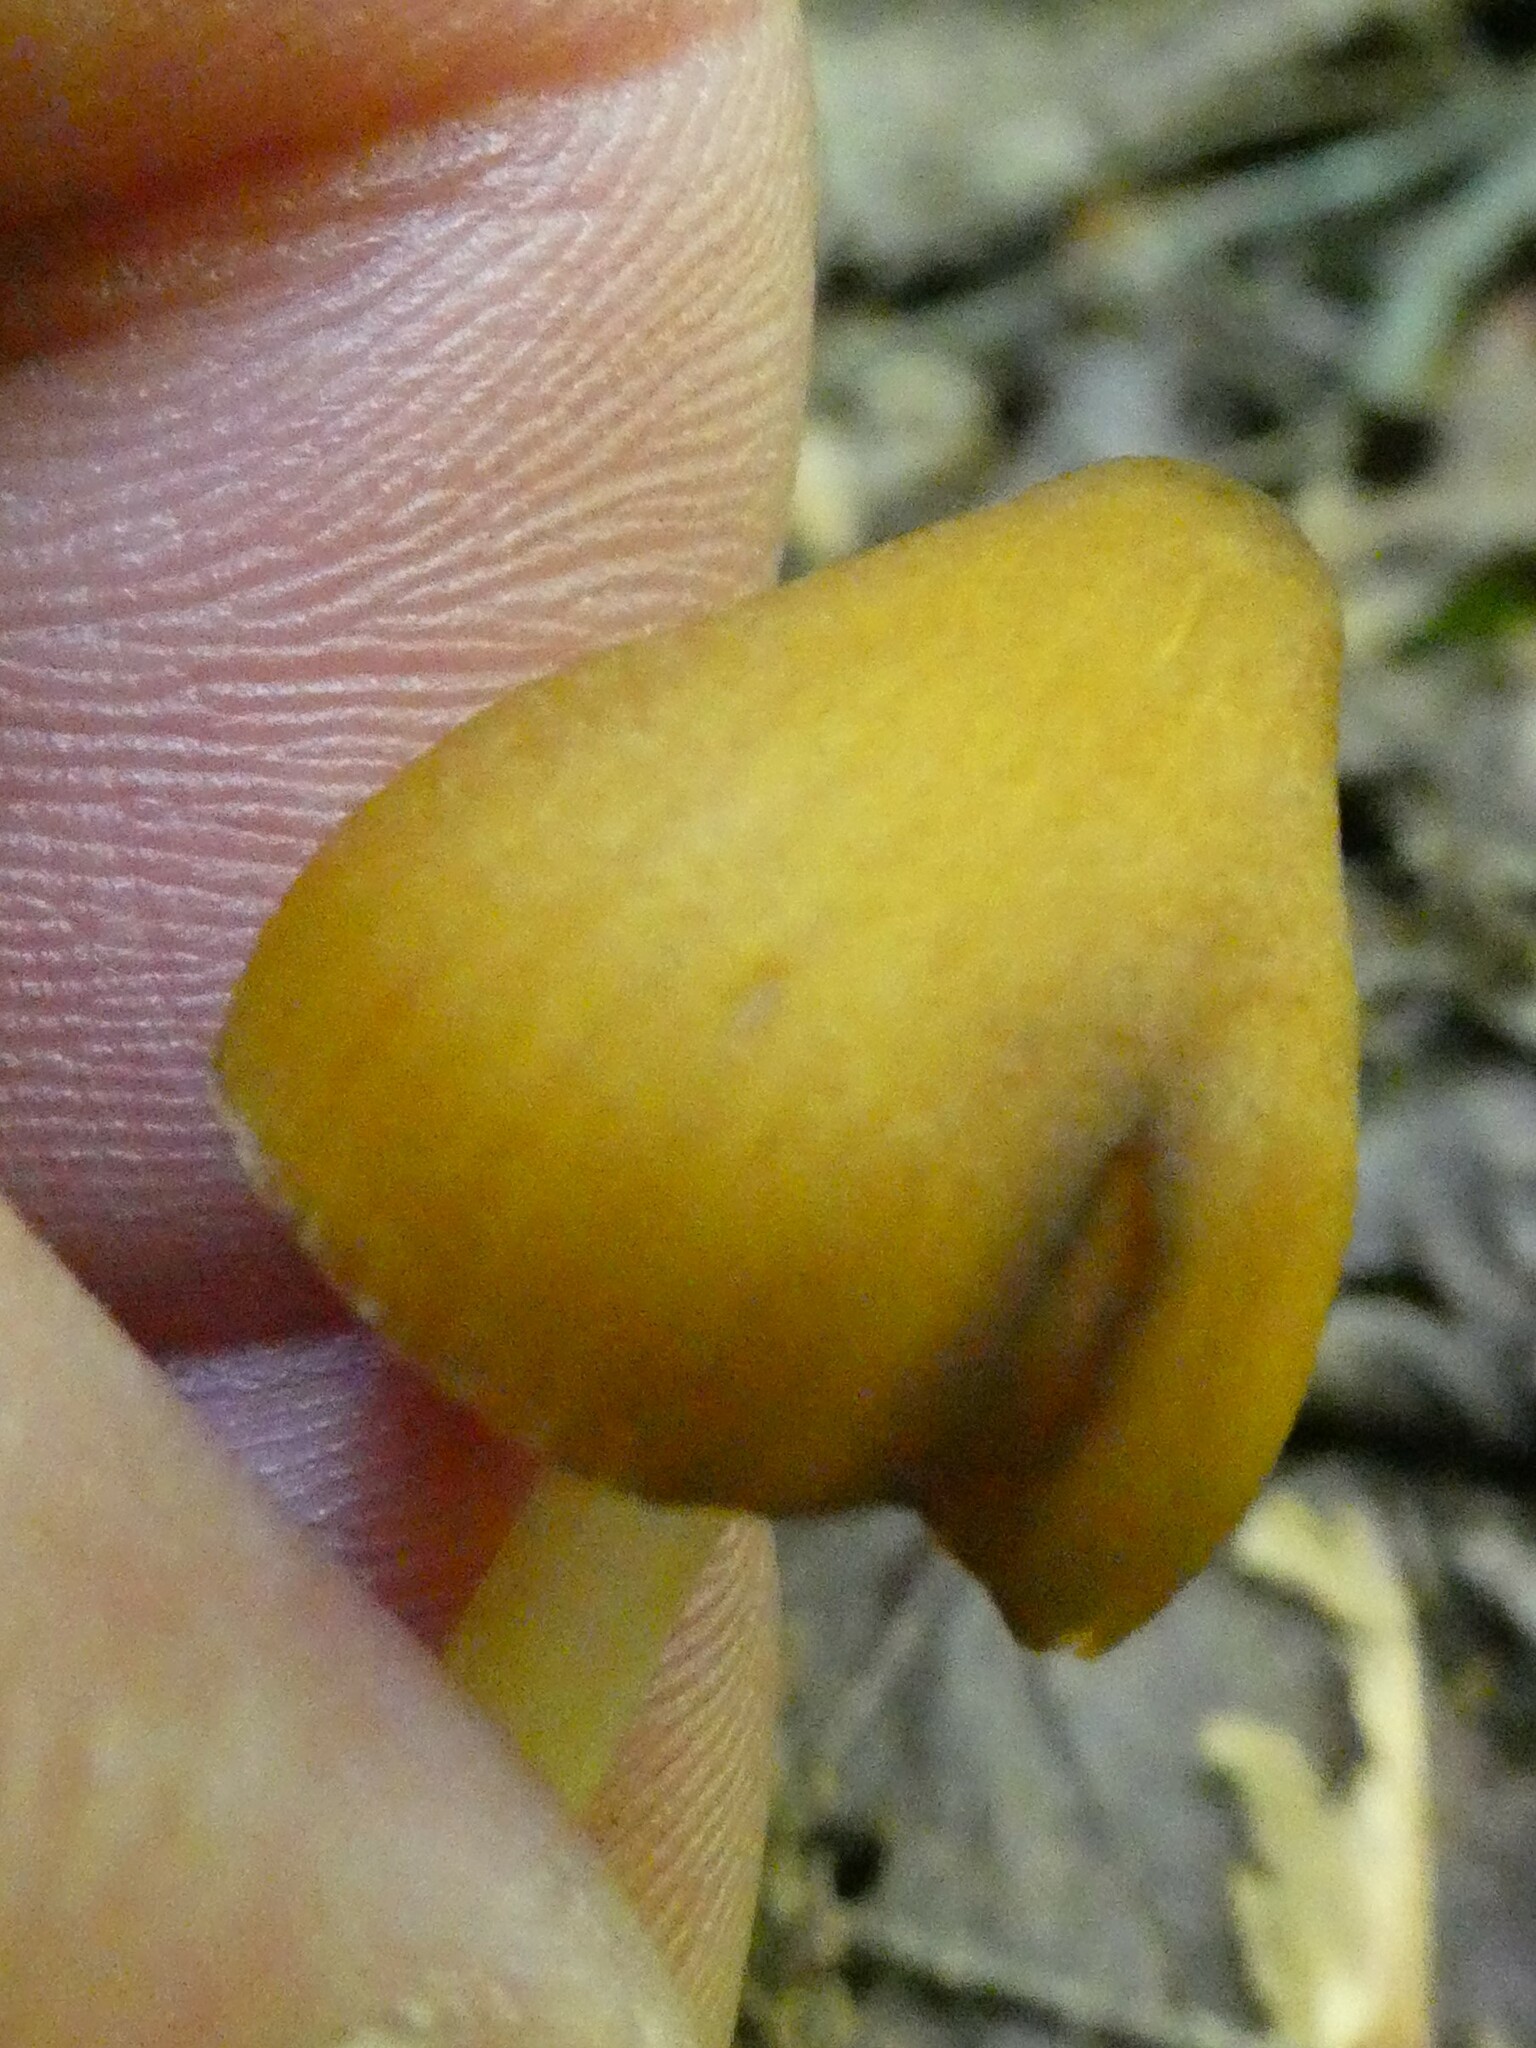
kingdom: Fungi
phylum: Basidiomycota
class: Agaricomycetes
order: Agaricales
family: Entolomataceae
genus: Entoloma
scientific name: Entoloma luteum
